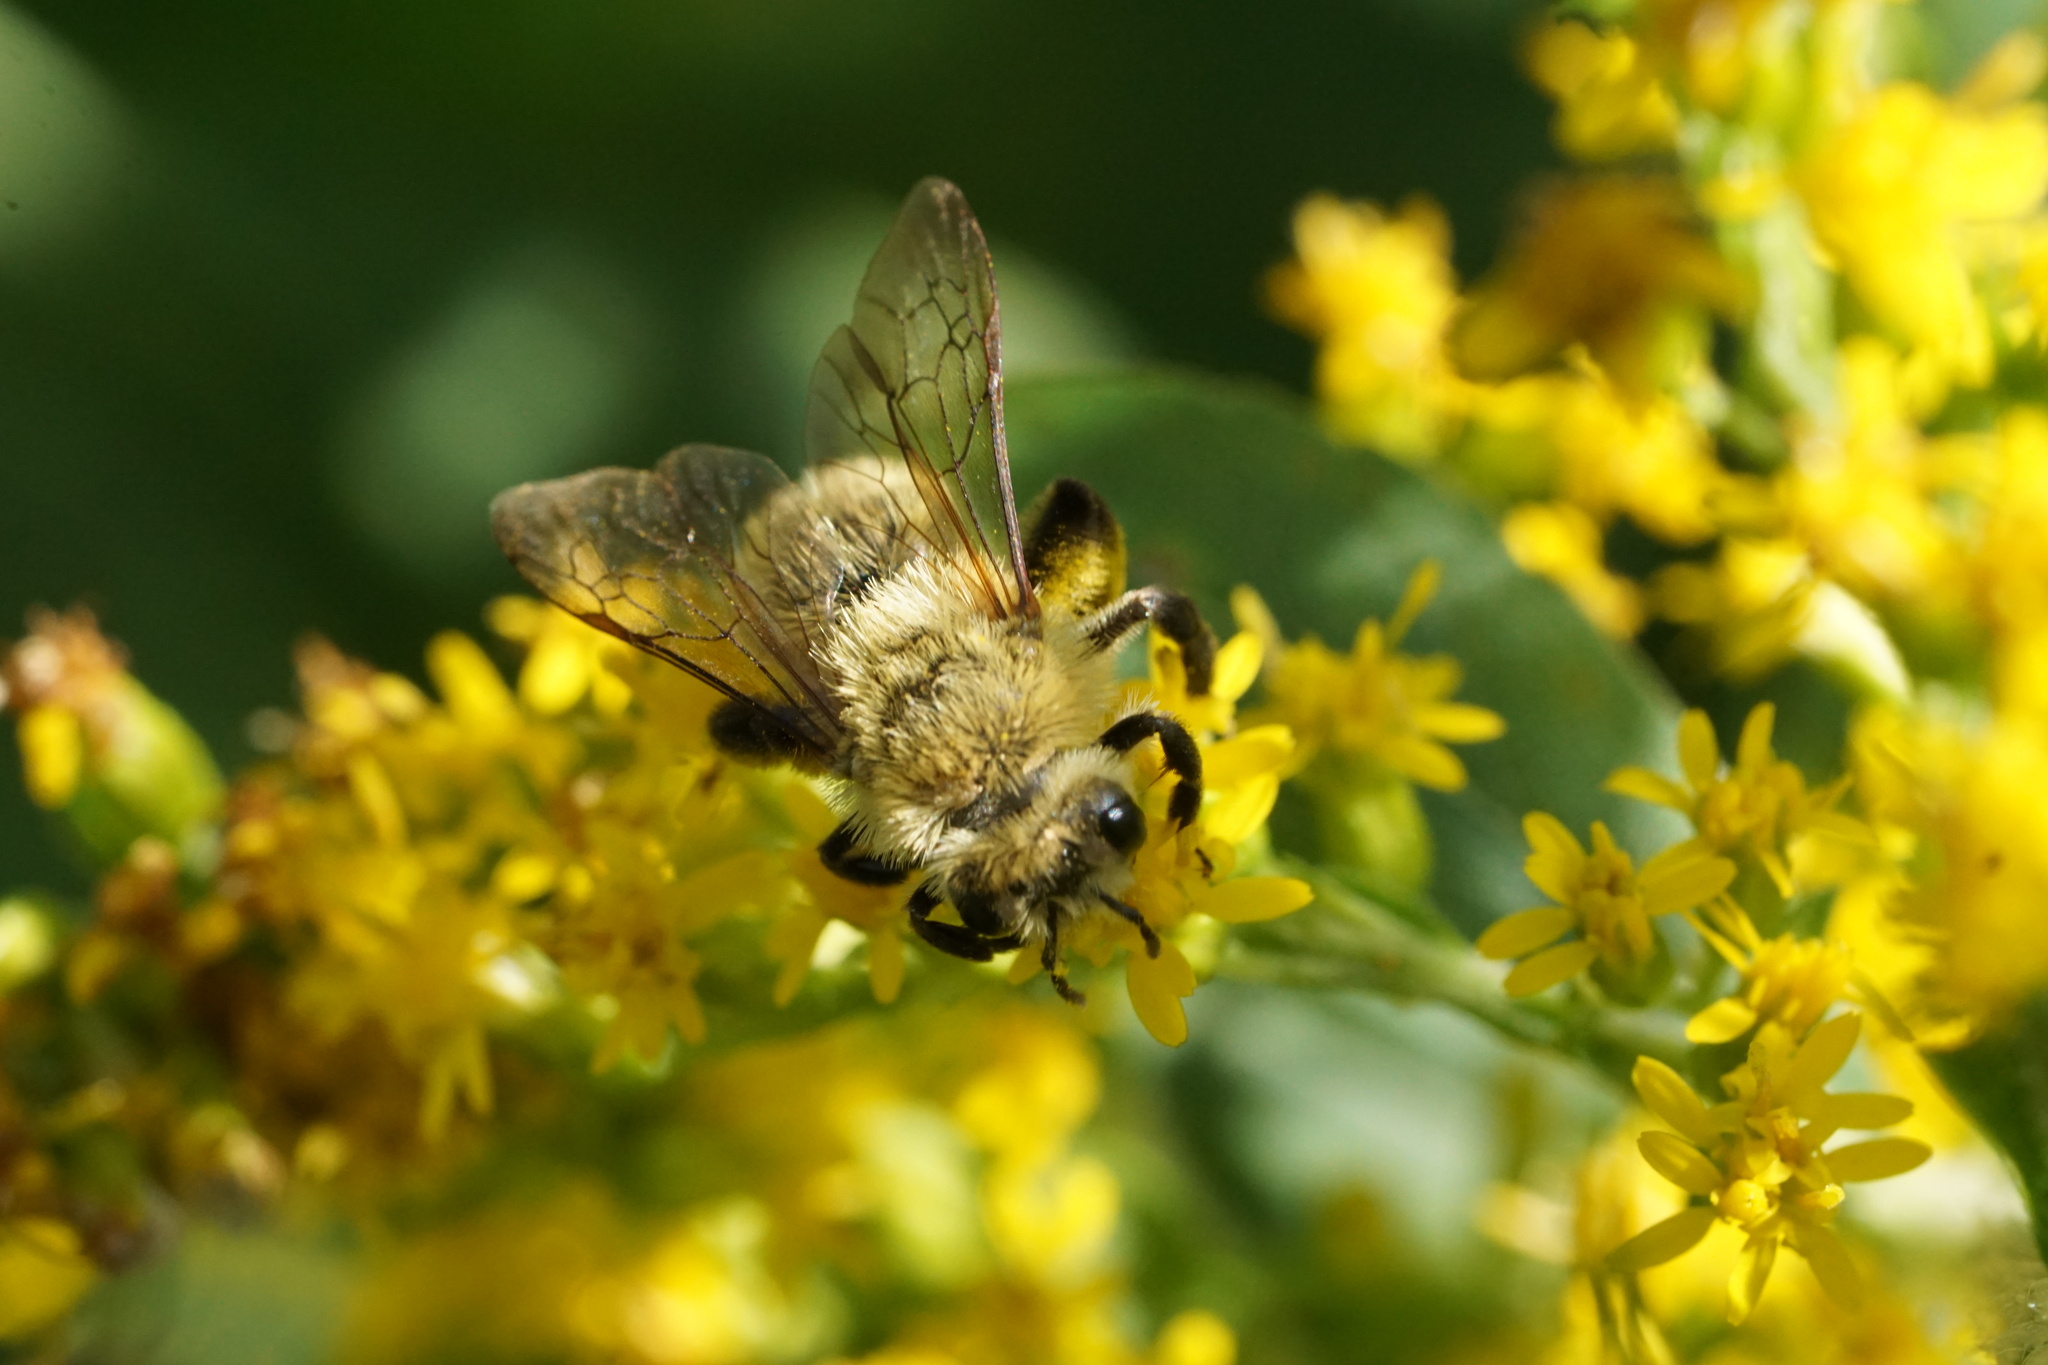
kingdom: Animalia
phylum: Arthropoda
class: Insecta
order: Hymenoptera
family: Andrenidae
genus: Andrena
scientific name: Andrena hirticincta
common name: Hairy-banded mining bee
